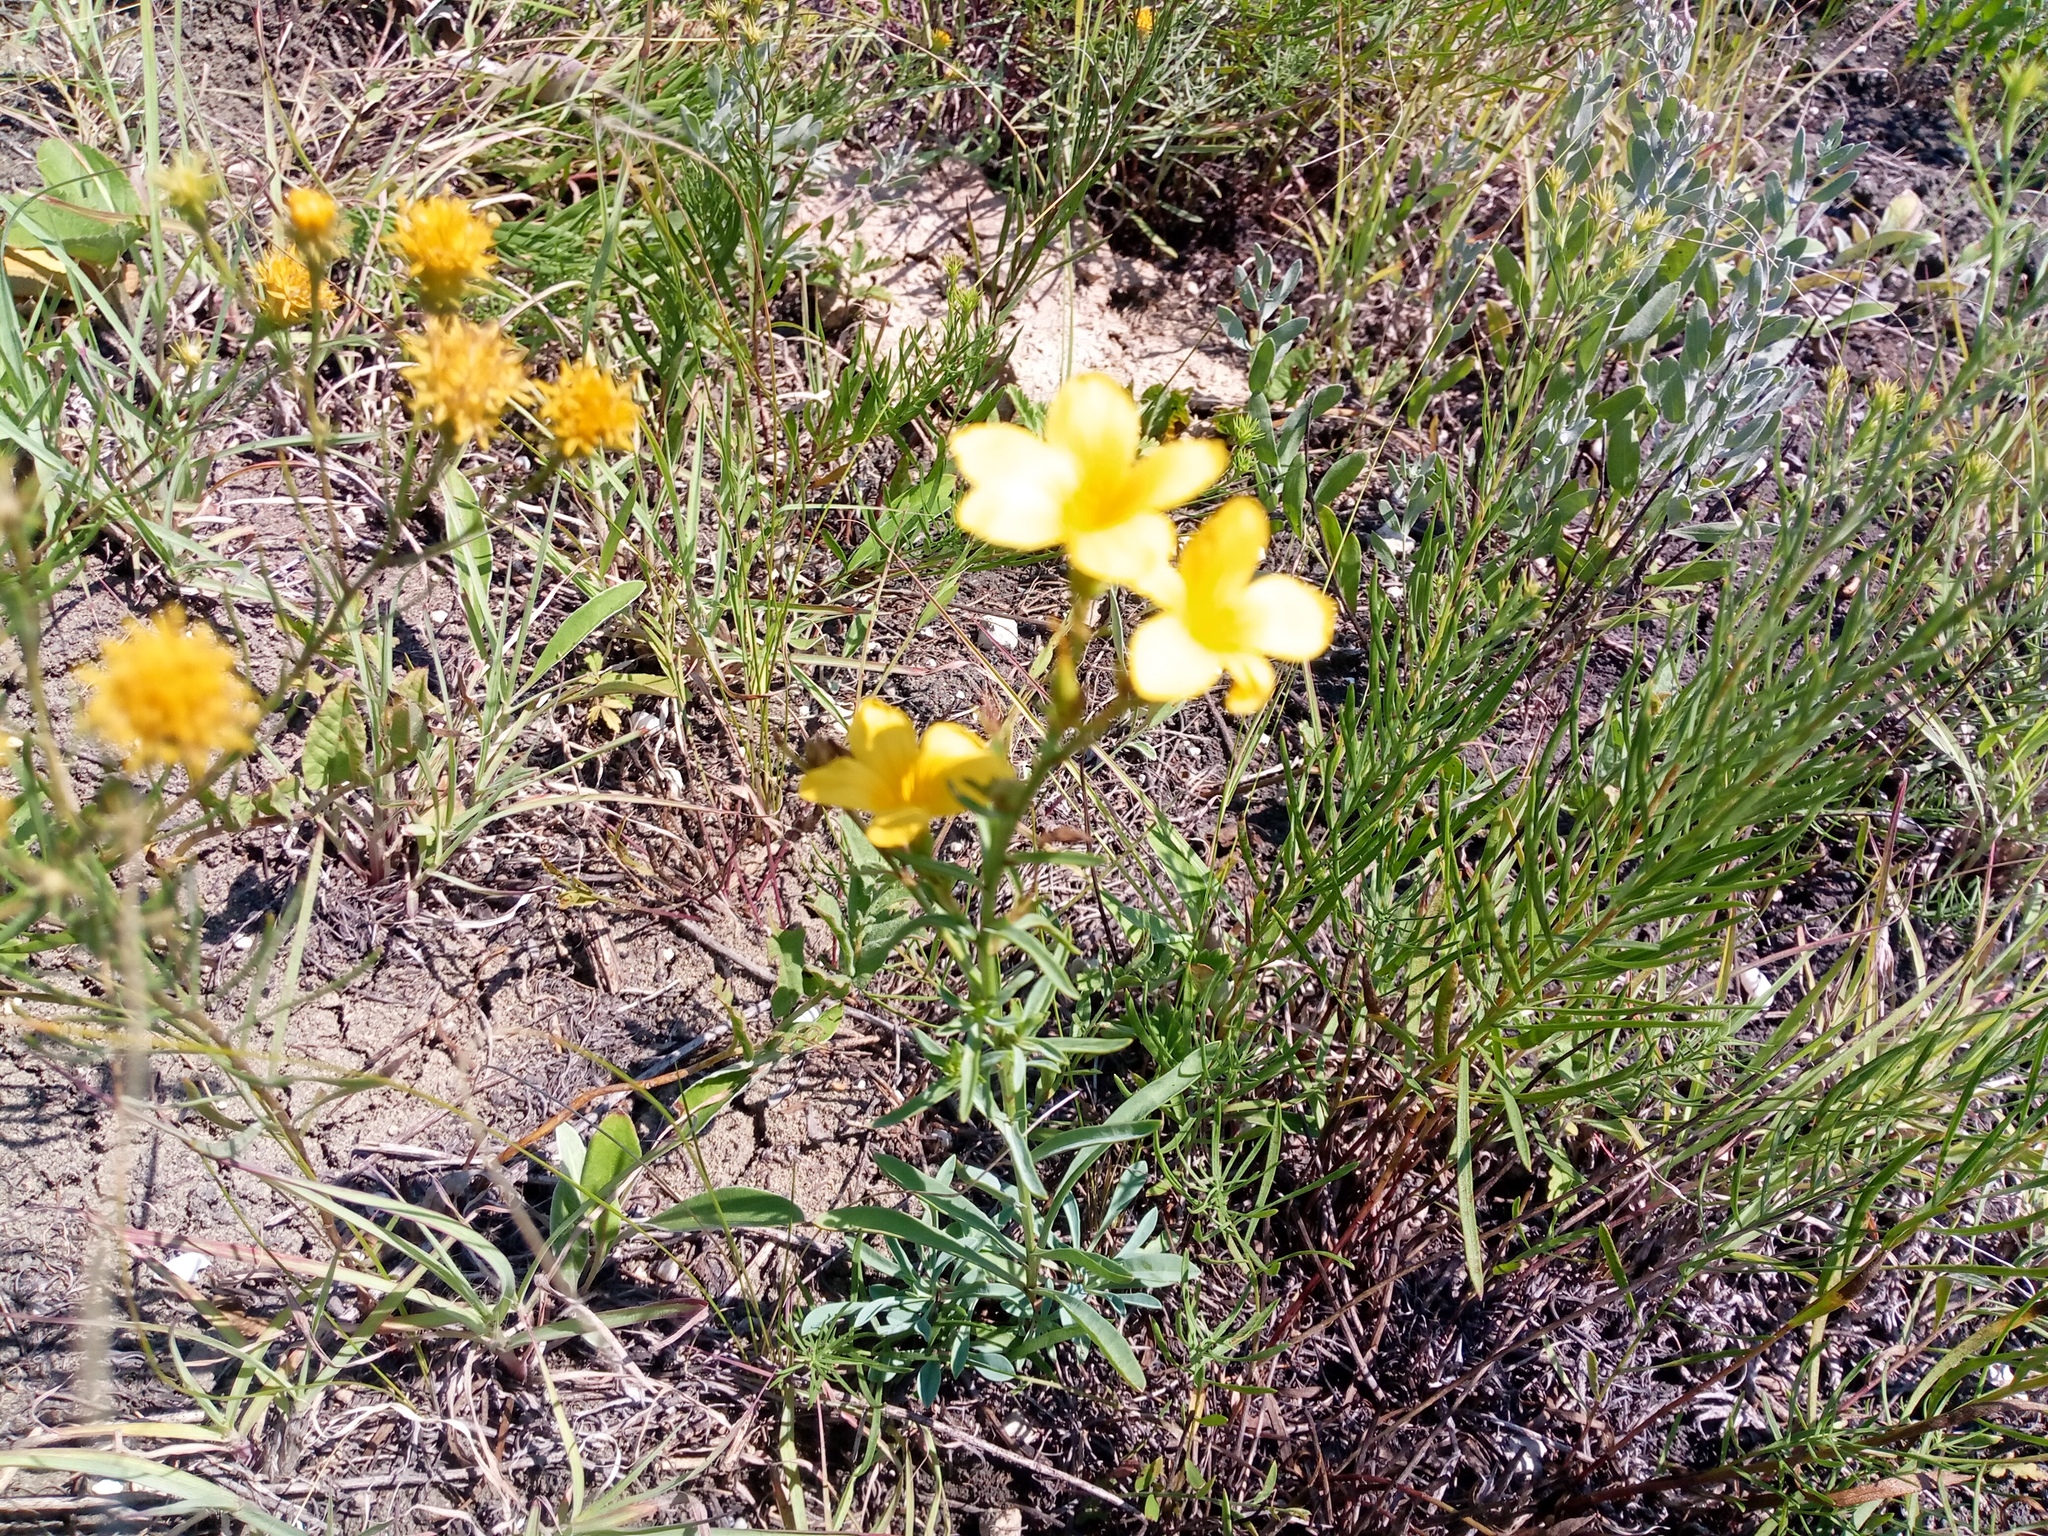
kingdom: Plantae
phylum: Tracheophyta
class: Magnoliopsida
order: Malpighiales
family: Linaceae
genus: Linum
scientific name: Linum flavum
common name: Yellow flax
